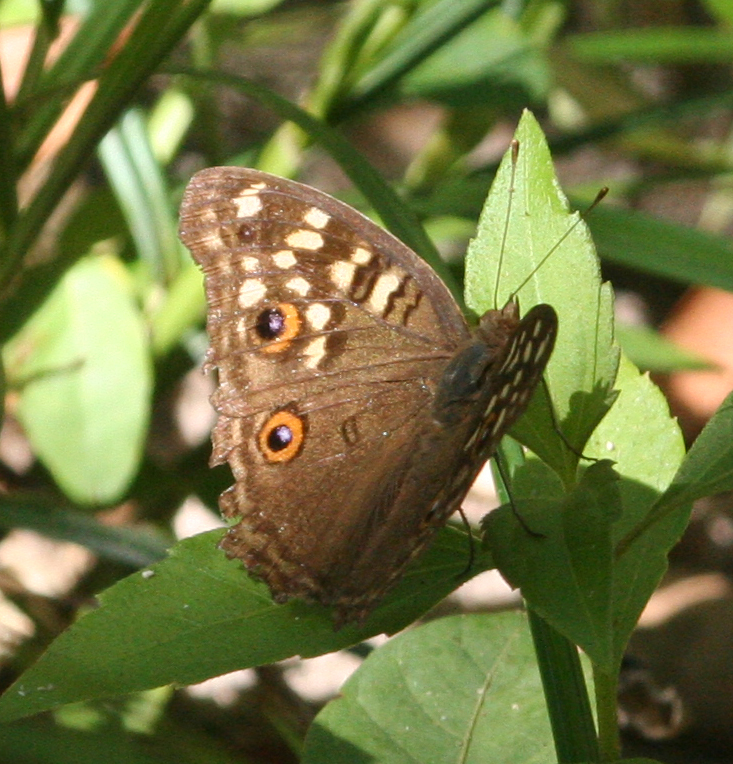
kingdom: Animalia
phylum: Arthropoda
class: Insecta
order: Lepidoptera
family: Nymphalidae
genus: Junonia
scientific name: Junonia lemonias
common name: Lemon pansy
